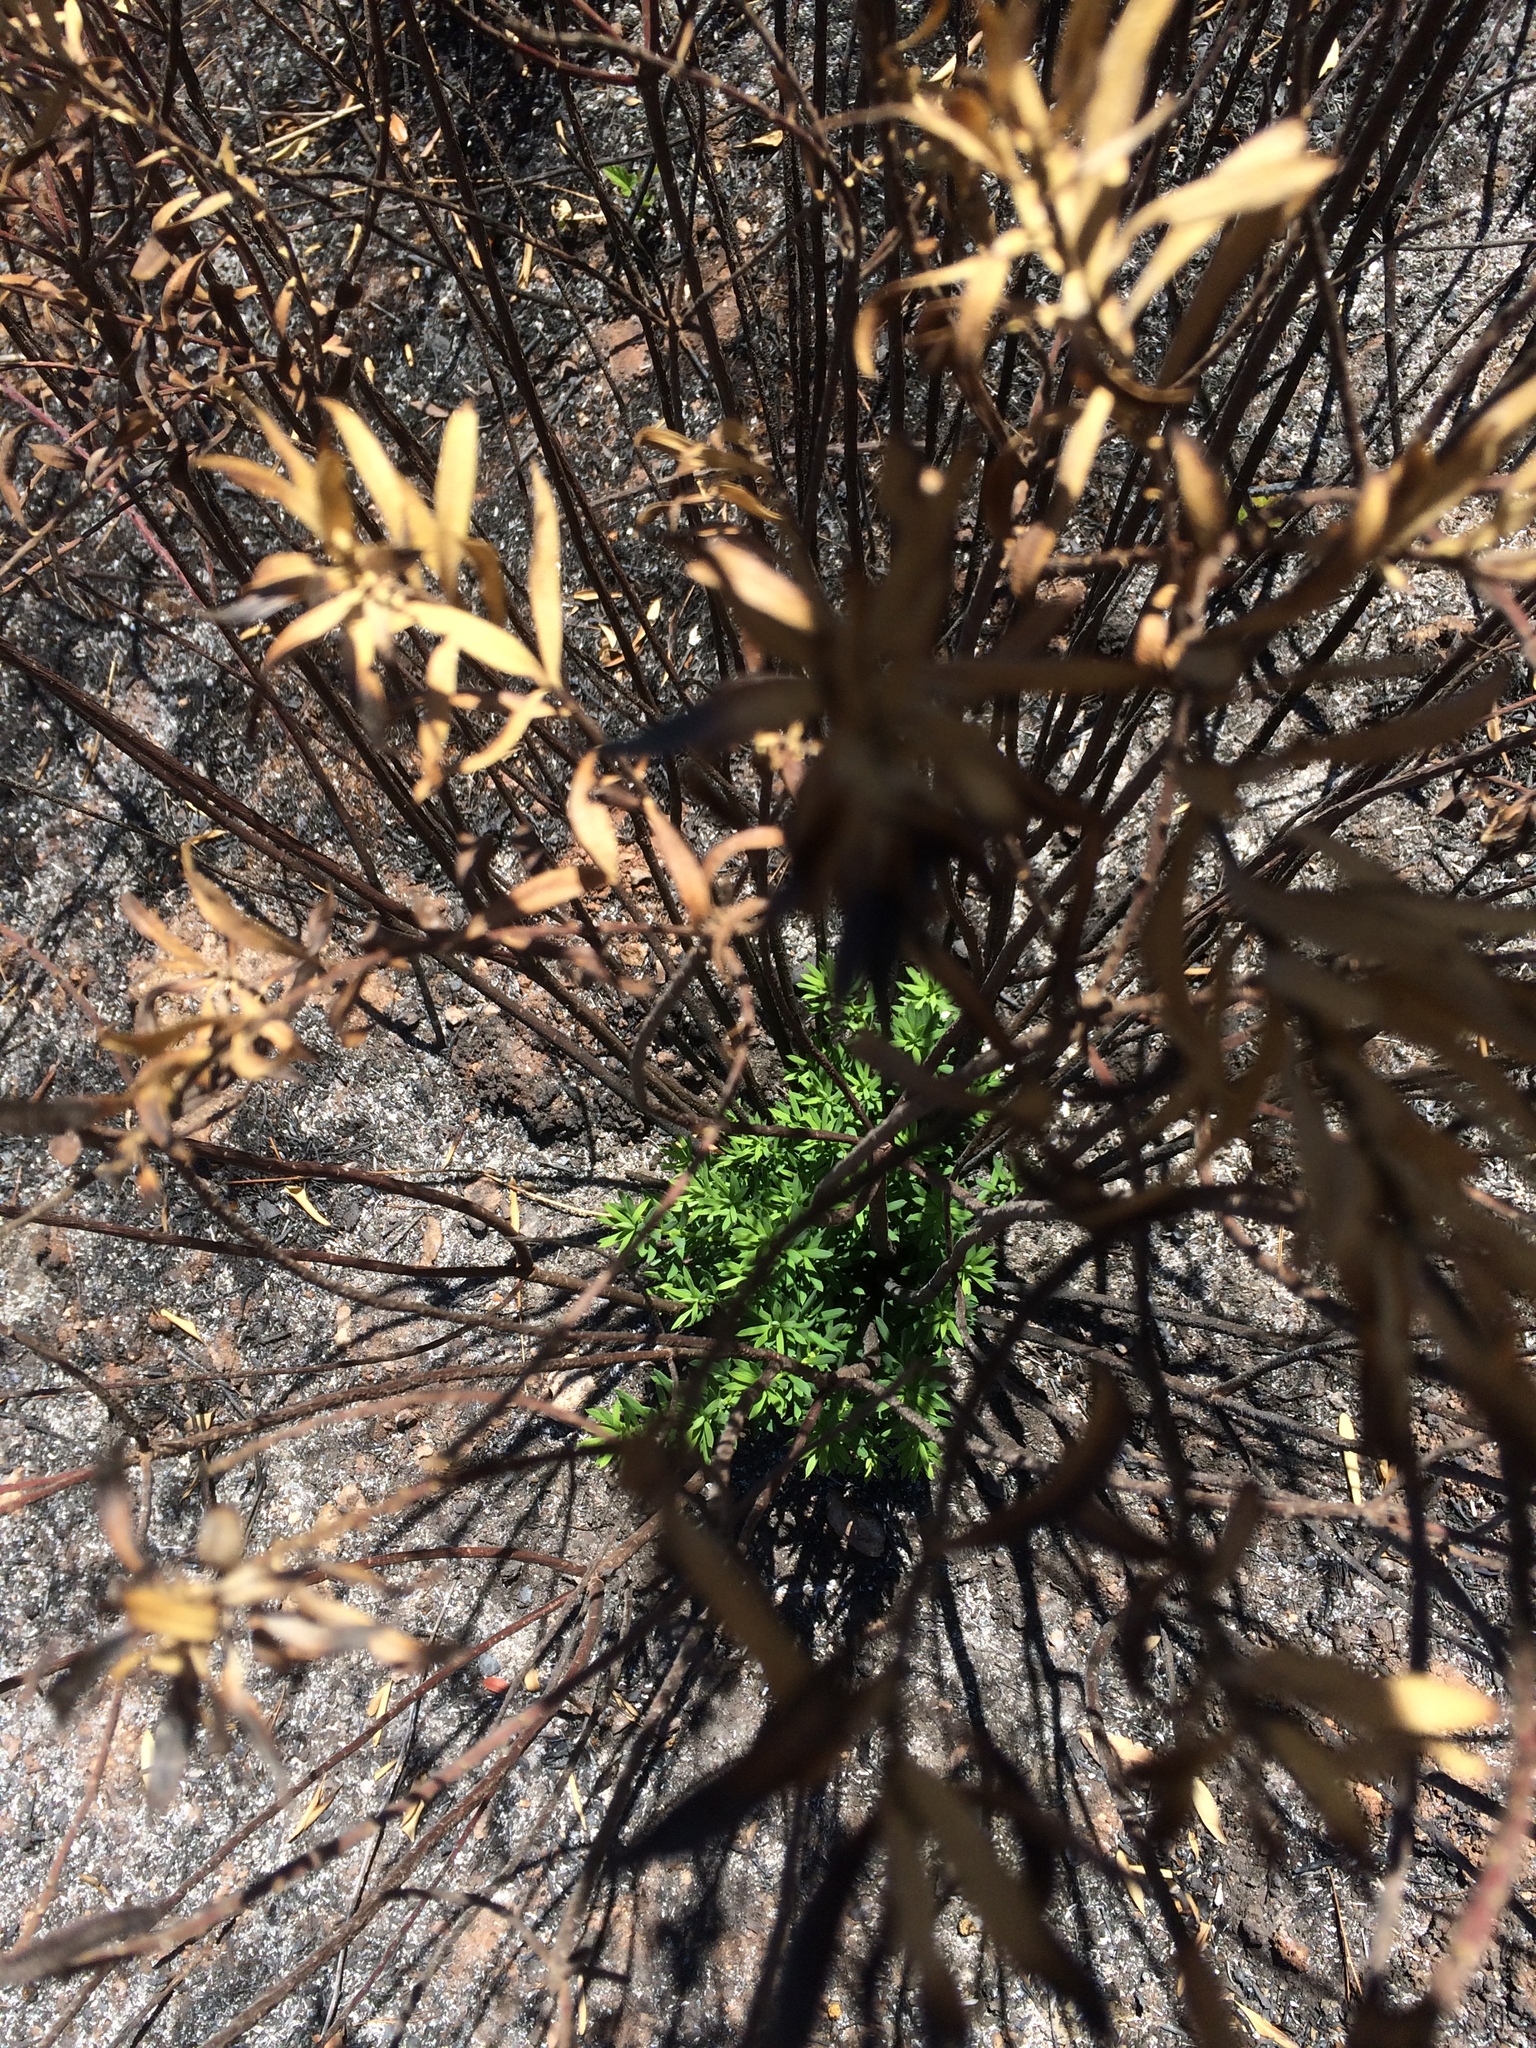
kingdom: Plantae
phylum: Tracheophyta
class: Magnoliopsida
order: Malvales
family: Thymelaeaceae
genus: Daphne
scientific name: Daphne gnidium
